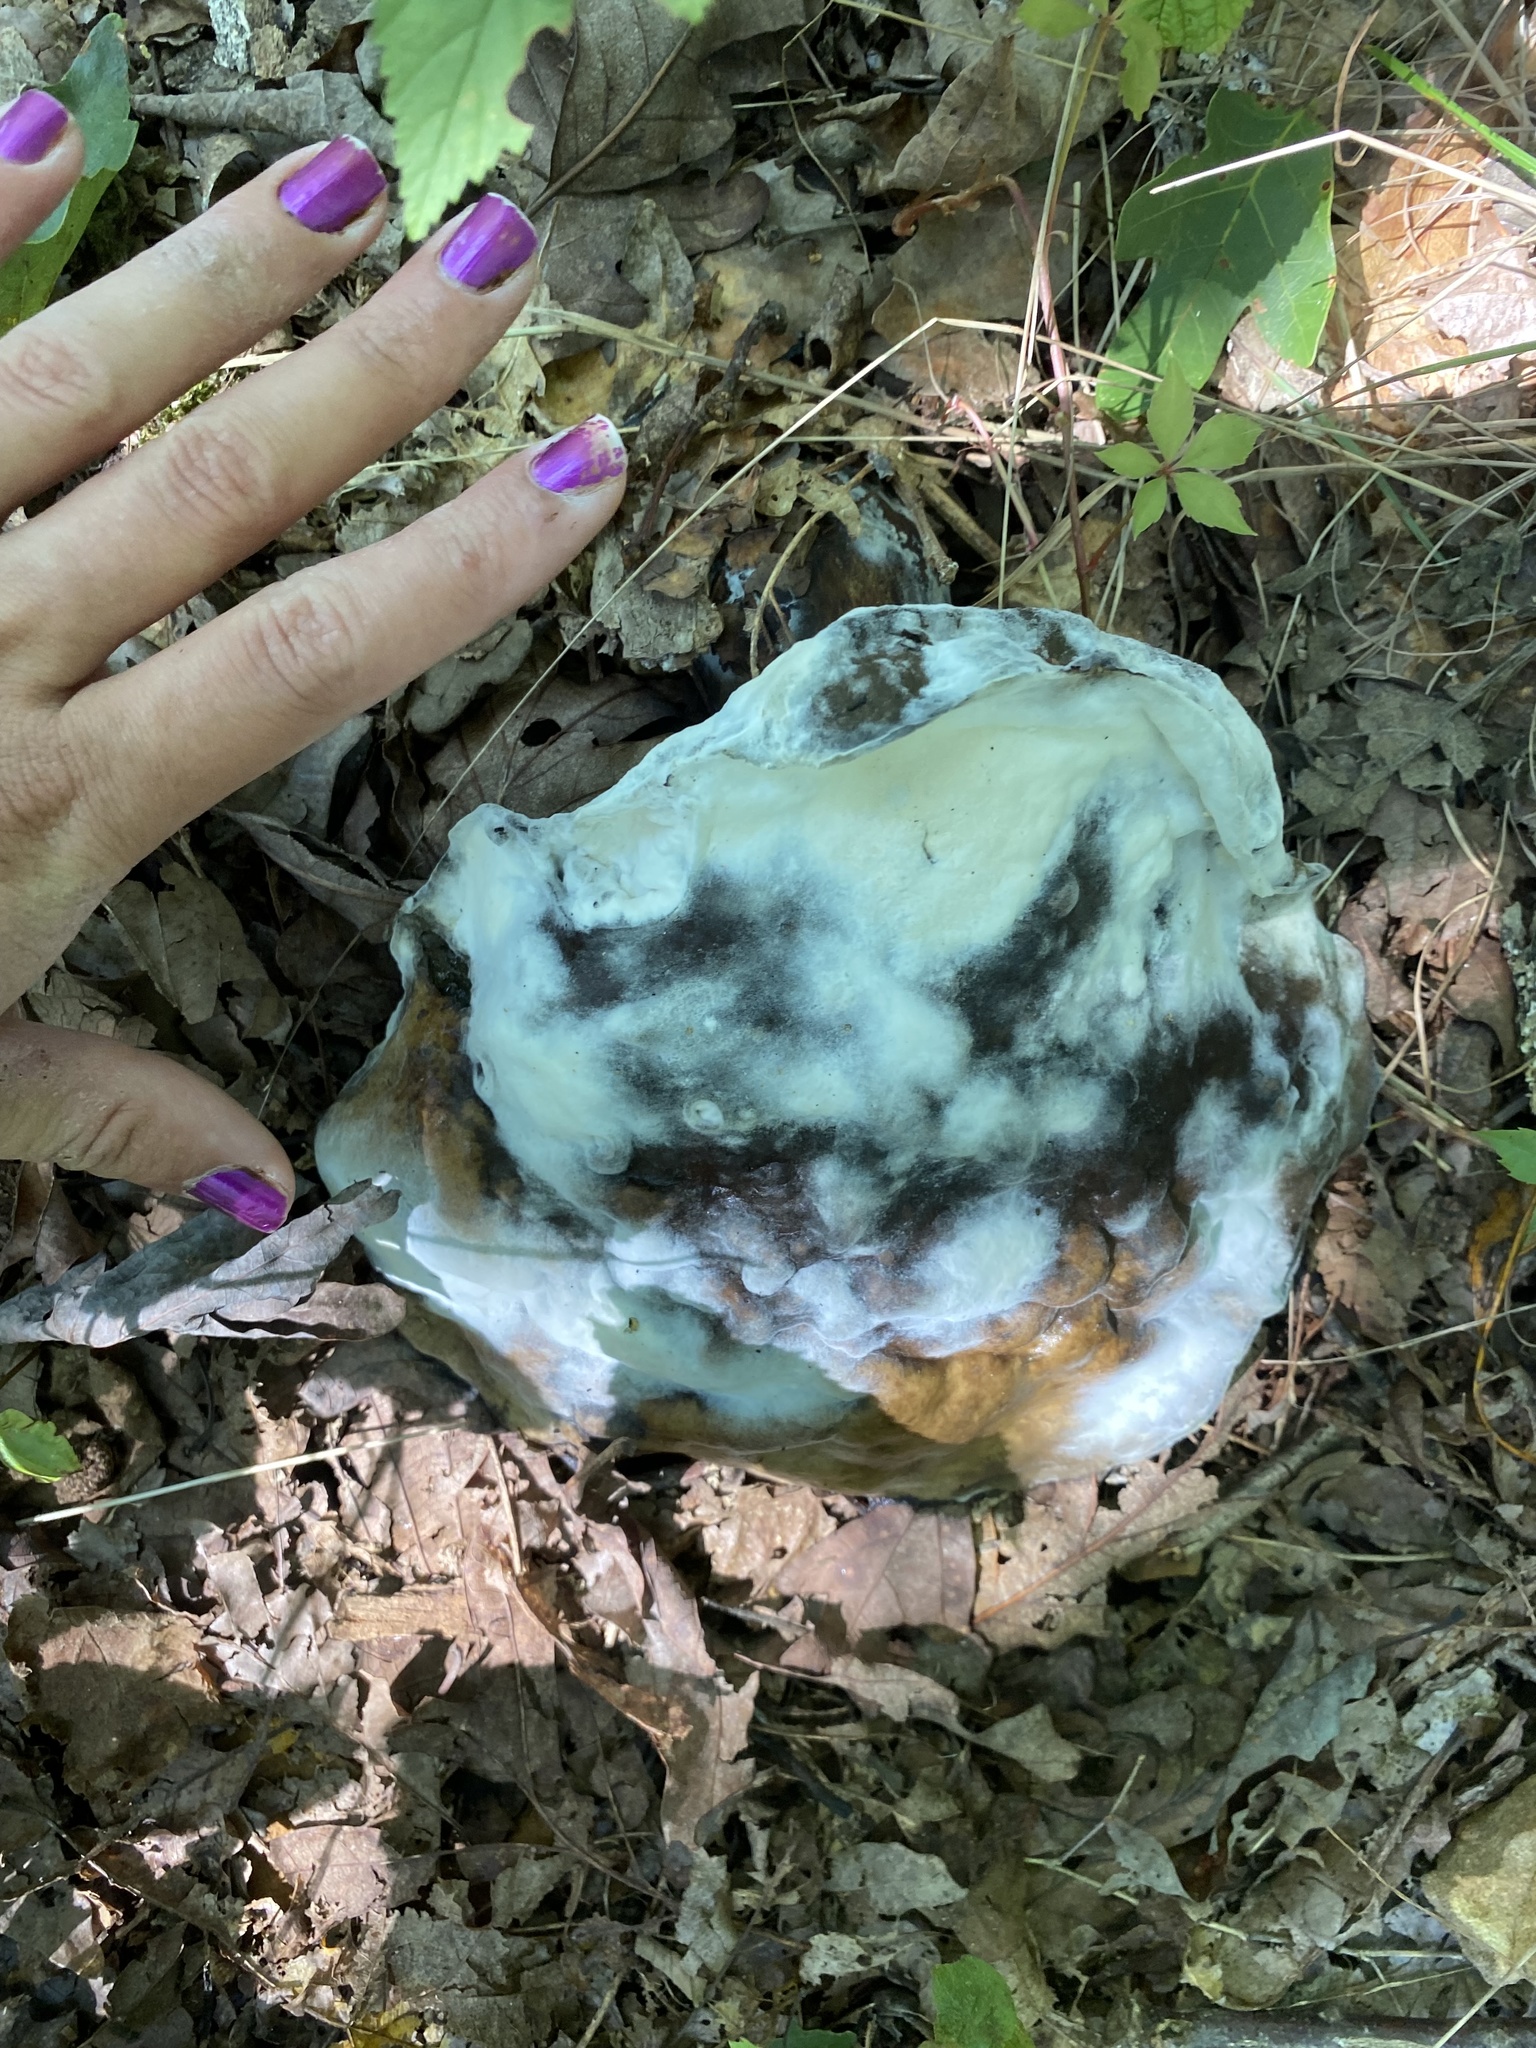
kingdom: Fungi
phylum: Ascomycota
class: Sordariomycetes
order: Hypocreales
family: Hypocreaceae
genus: Hypomyces
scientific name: Hypomyces chrysospermus
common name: Bolete mould
